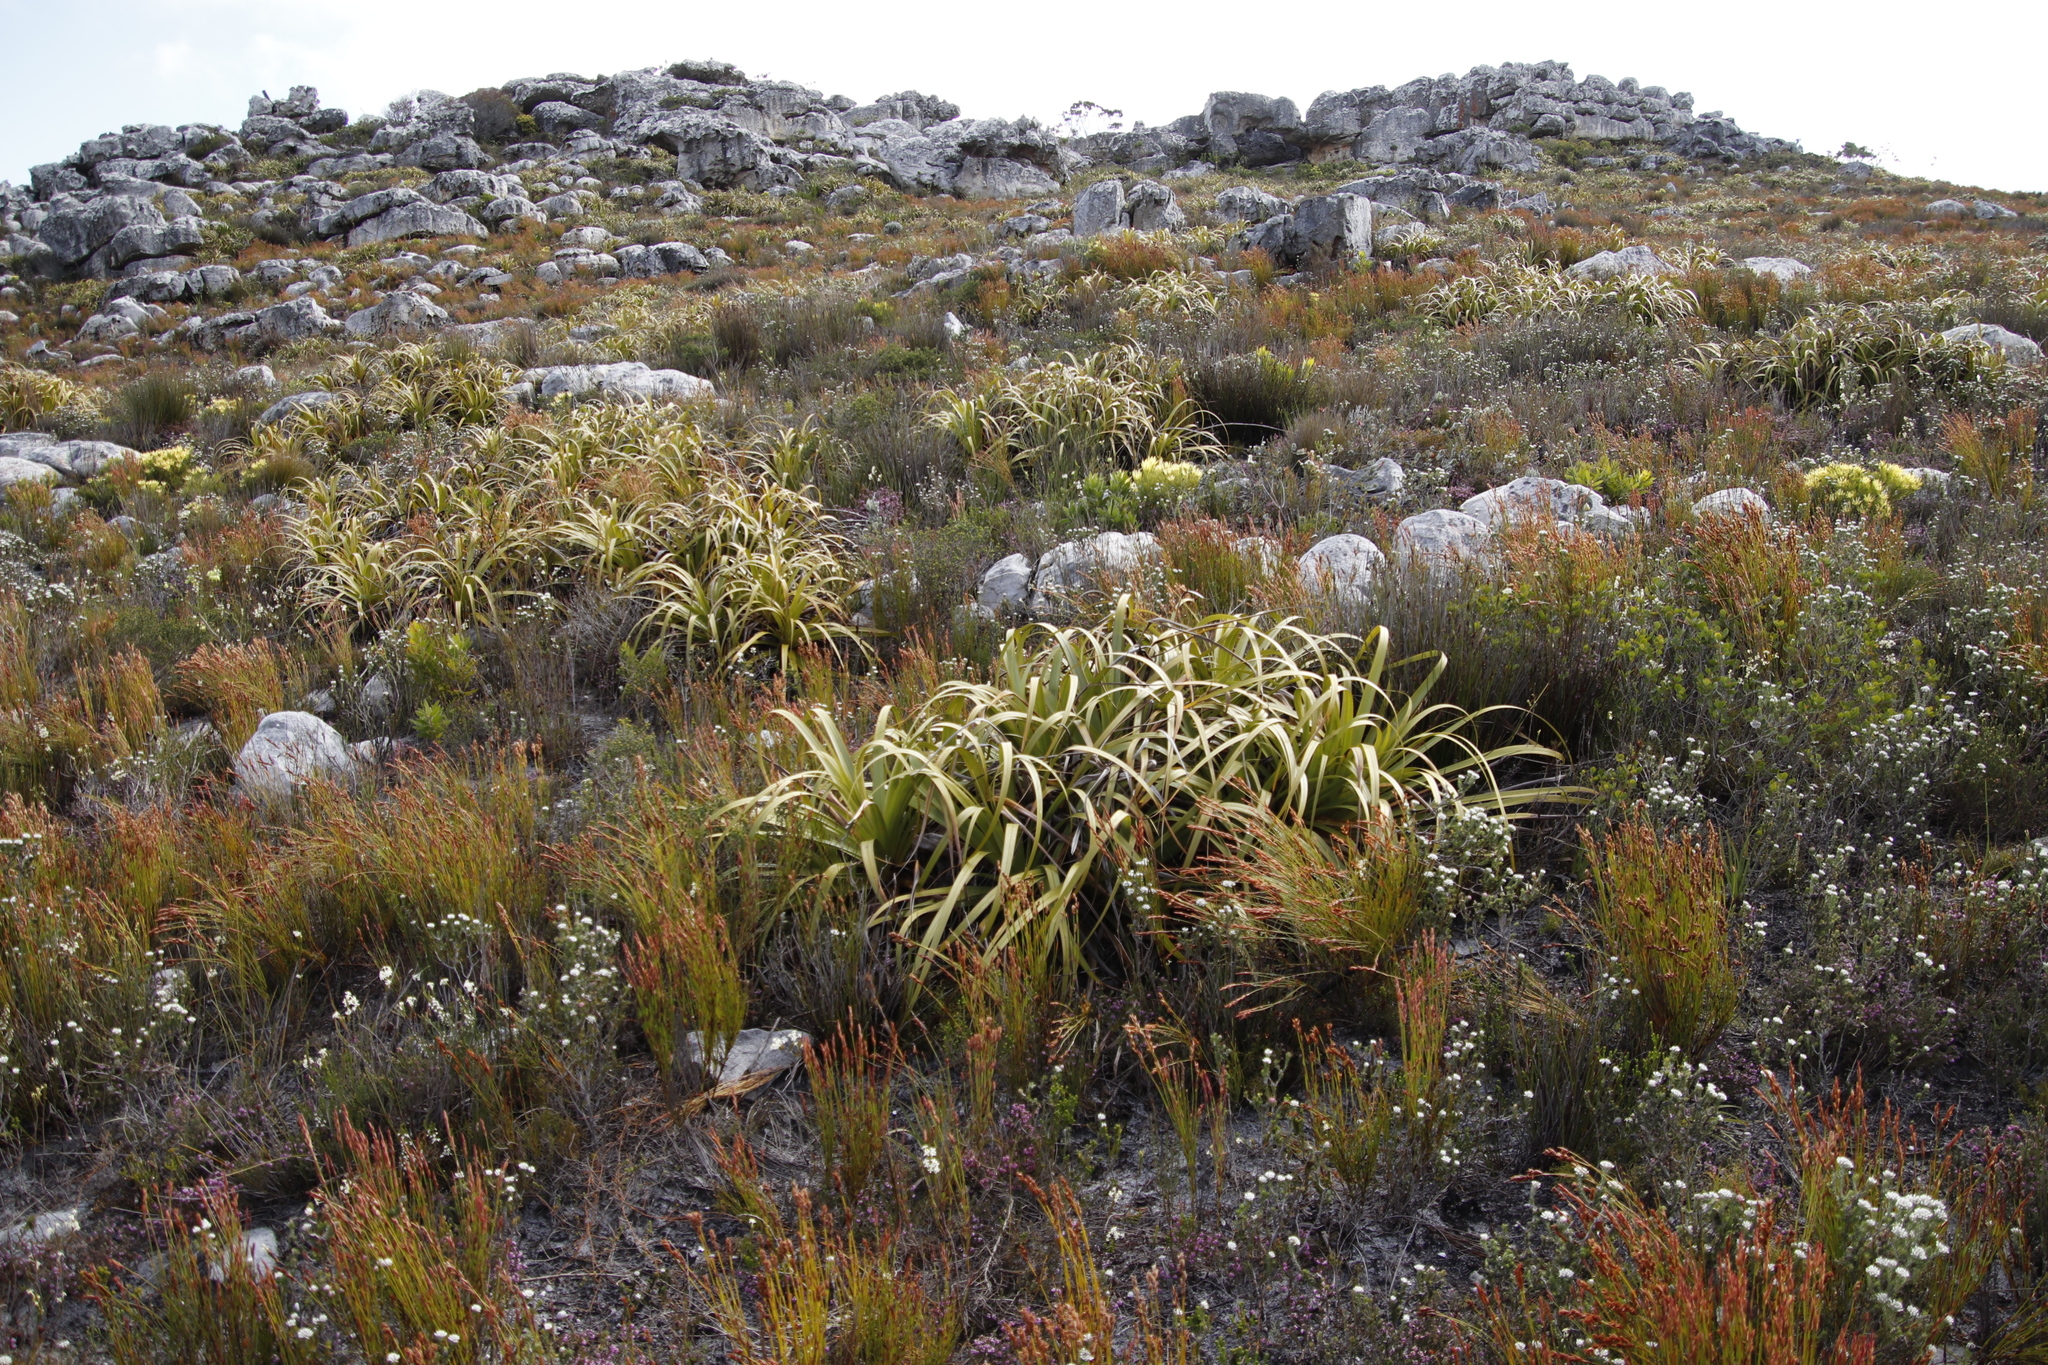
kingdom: Plantae
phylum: Tracheophyta
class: Liliopsida
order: Poales
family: Cyperaceae
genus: Tetraria
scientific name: Tetraria thermalis
